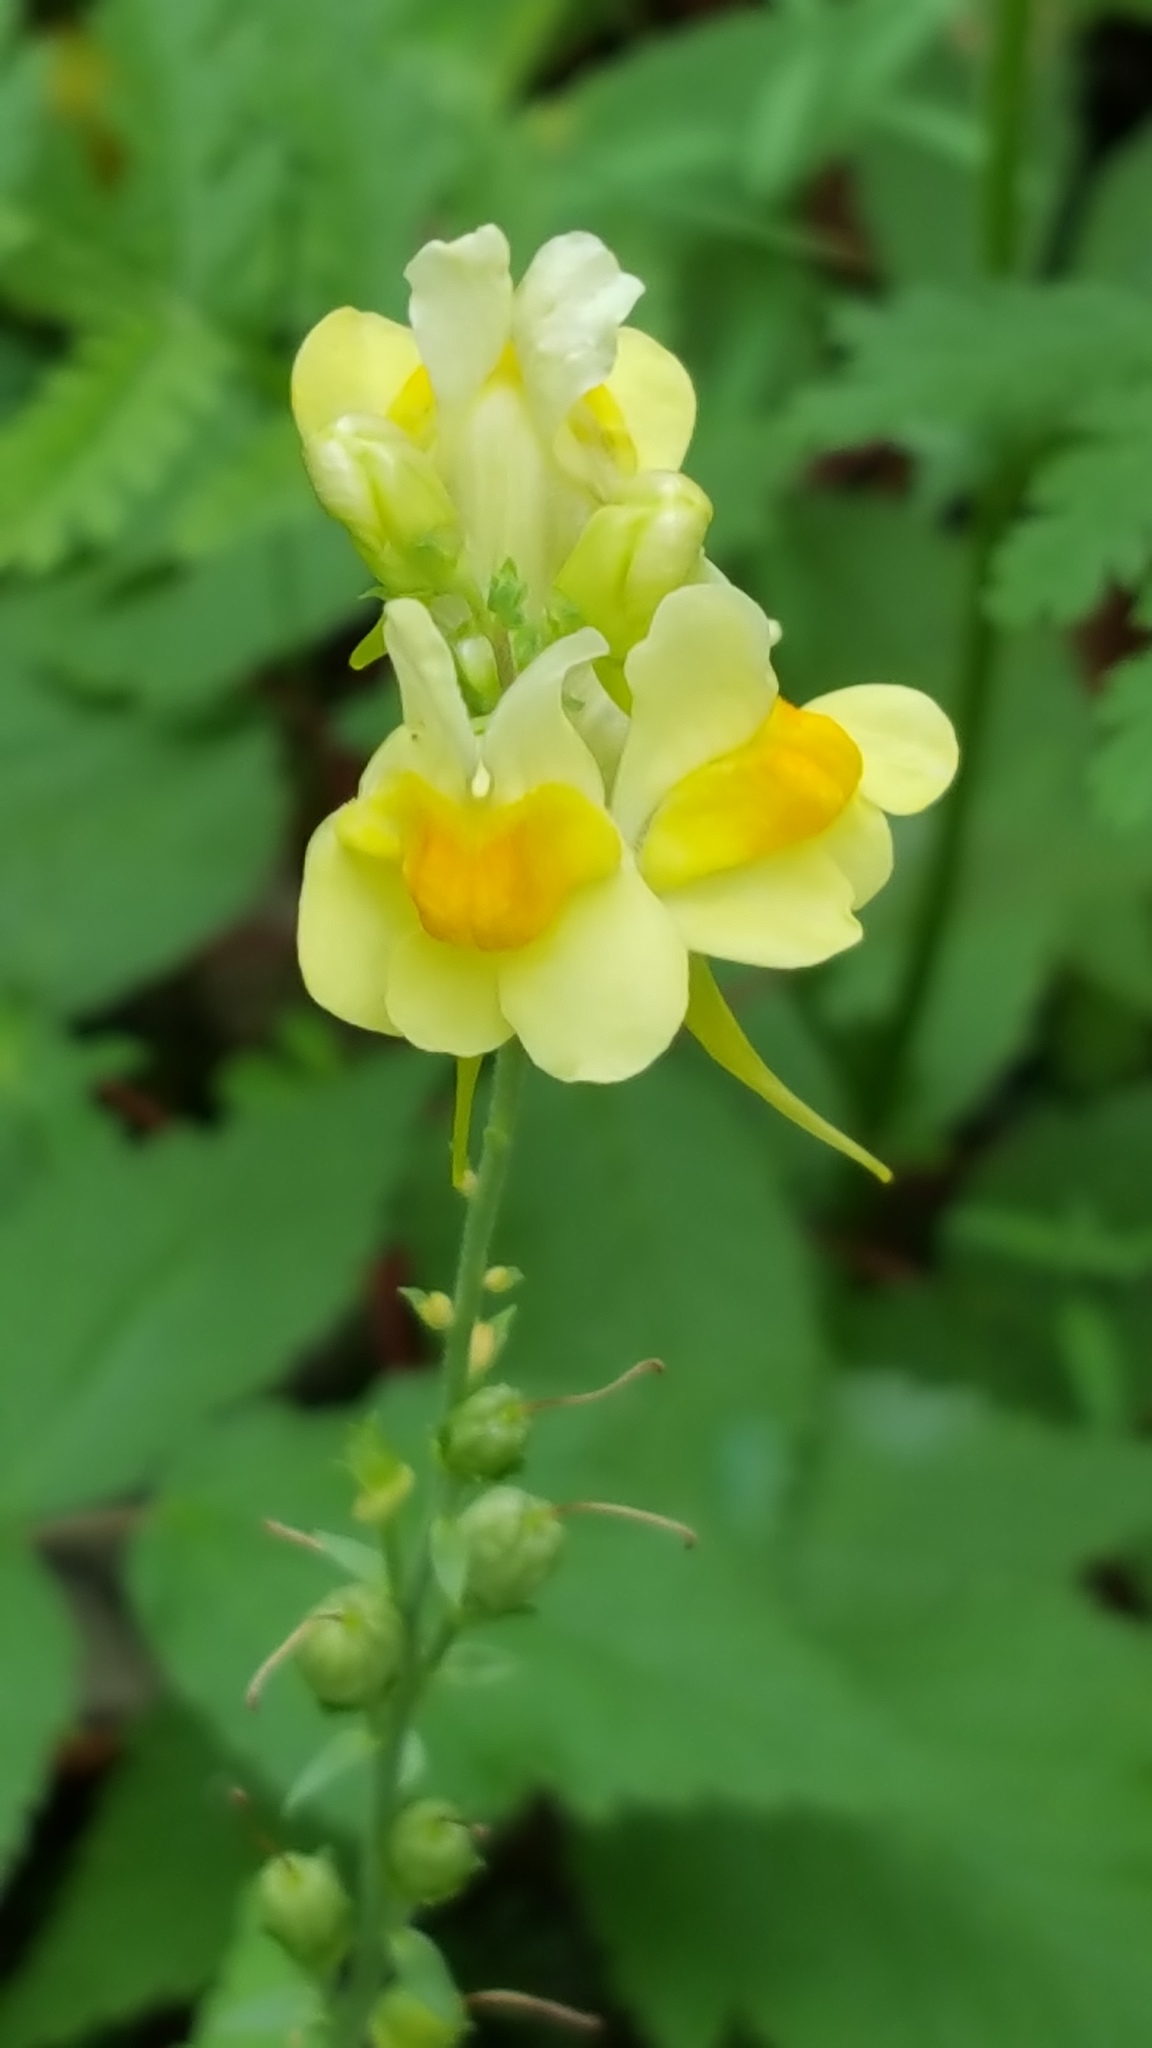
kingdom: Plantae
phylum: Tracheophyta
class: Magnoliopsida
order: Lamiales
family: Plantaginaceae
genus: Linaria
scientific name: Linaria vulgaris
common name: Butter and eggs
